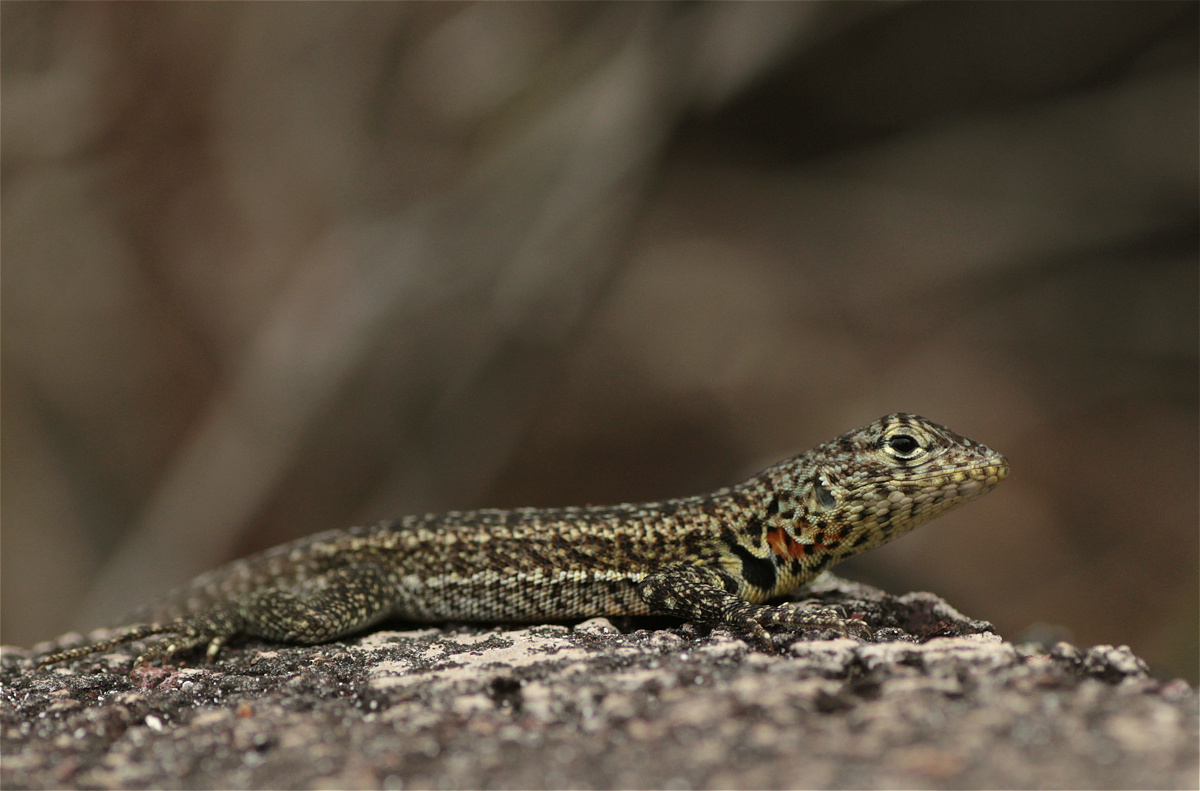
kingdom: Animalia
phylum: Chordata
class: Squamata
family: Tropiduridae
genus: Microlophus
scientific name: Microlophus indefatigabilis
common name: Galapagos lava lizard
